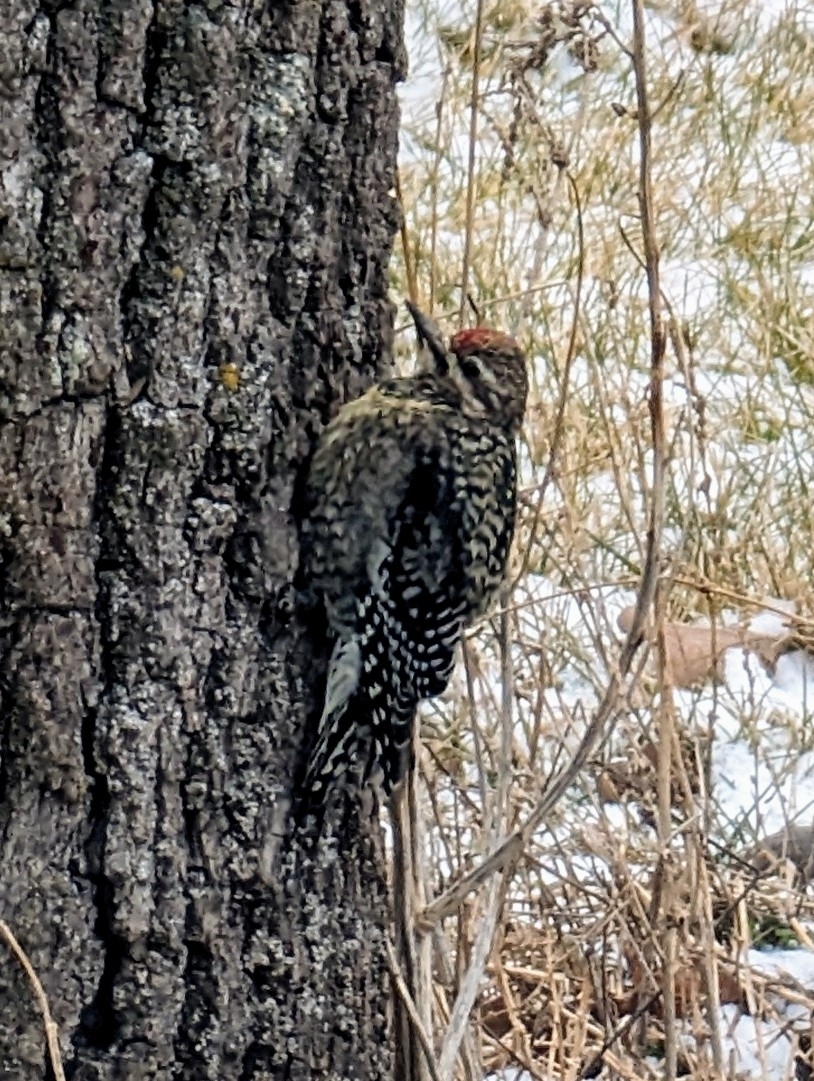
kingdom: Animalia
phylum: Chordata
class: Aves
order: Piciformes
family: Picidae
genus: Sphyrapicus
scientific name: Sphyrapicus varius
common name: Yellow-bellied sapsucker
